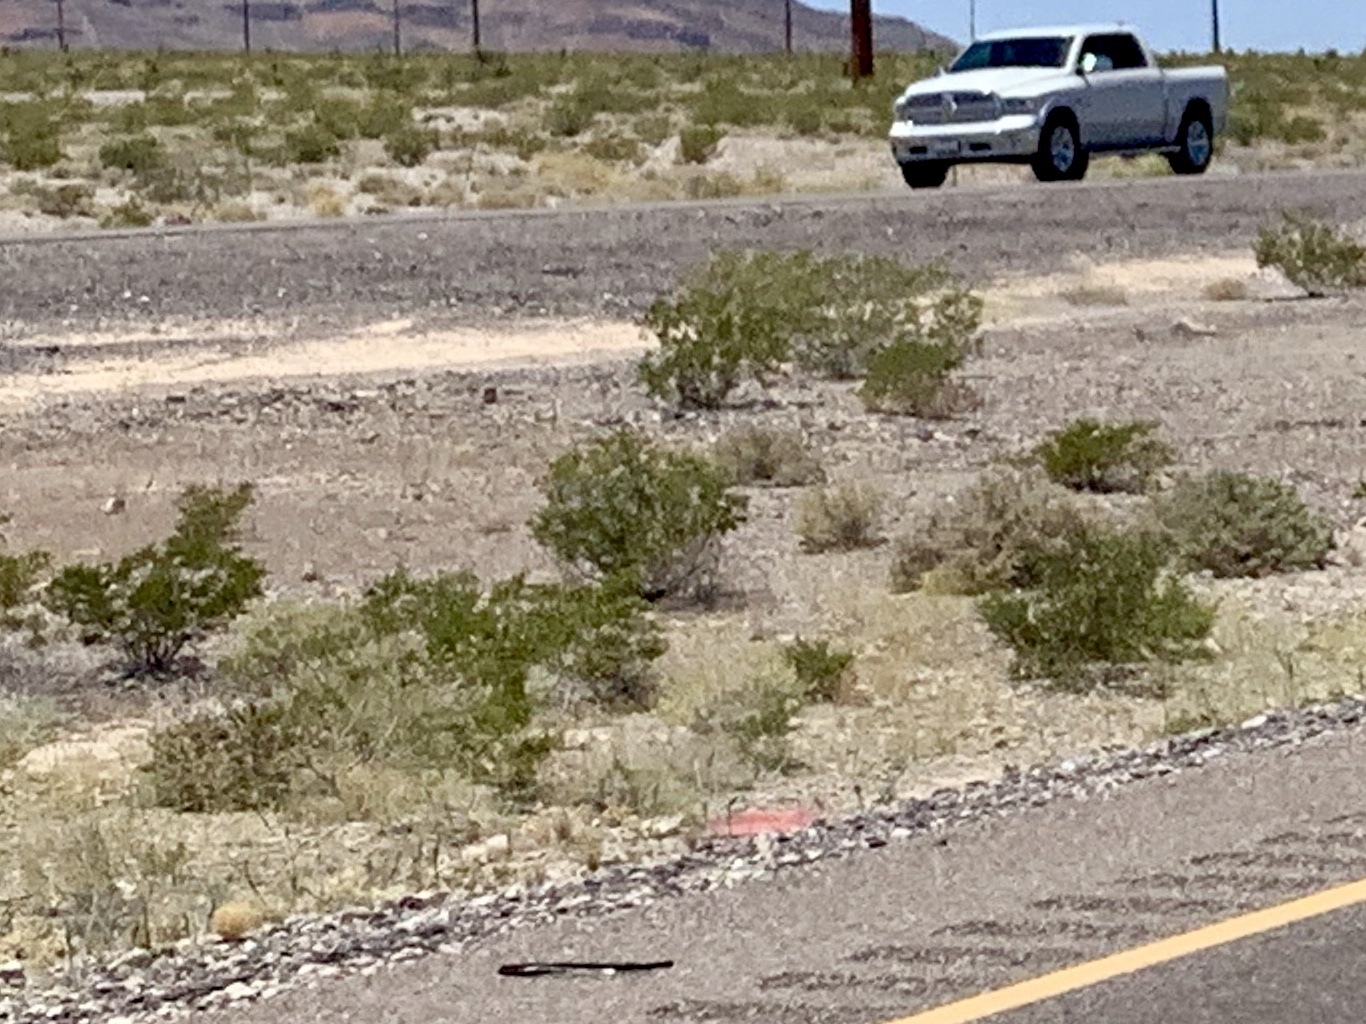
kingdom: Plantae
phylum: Tracheophyta
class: Magnoliopsida
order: Zygophyllales
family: Zygophyllaceae
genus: Larrea
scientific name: Larrea tridentata
